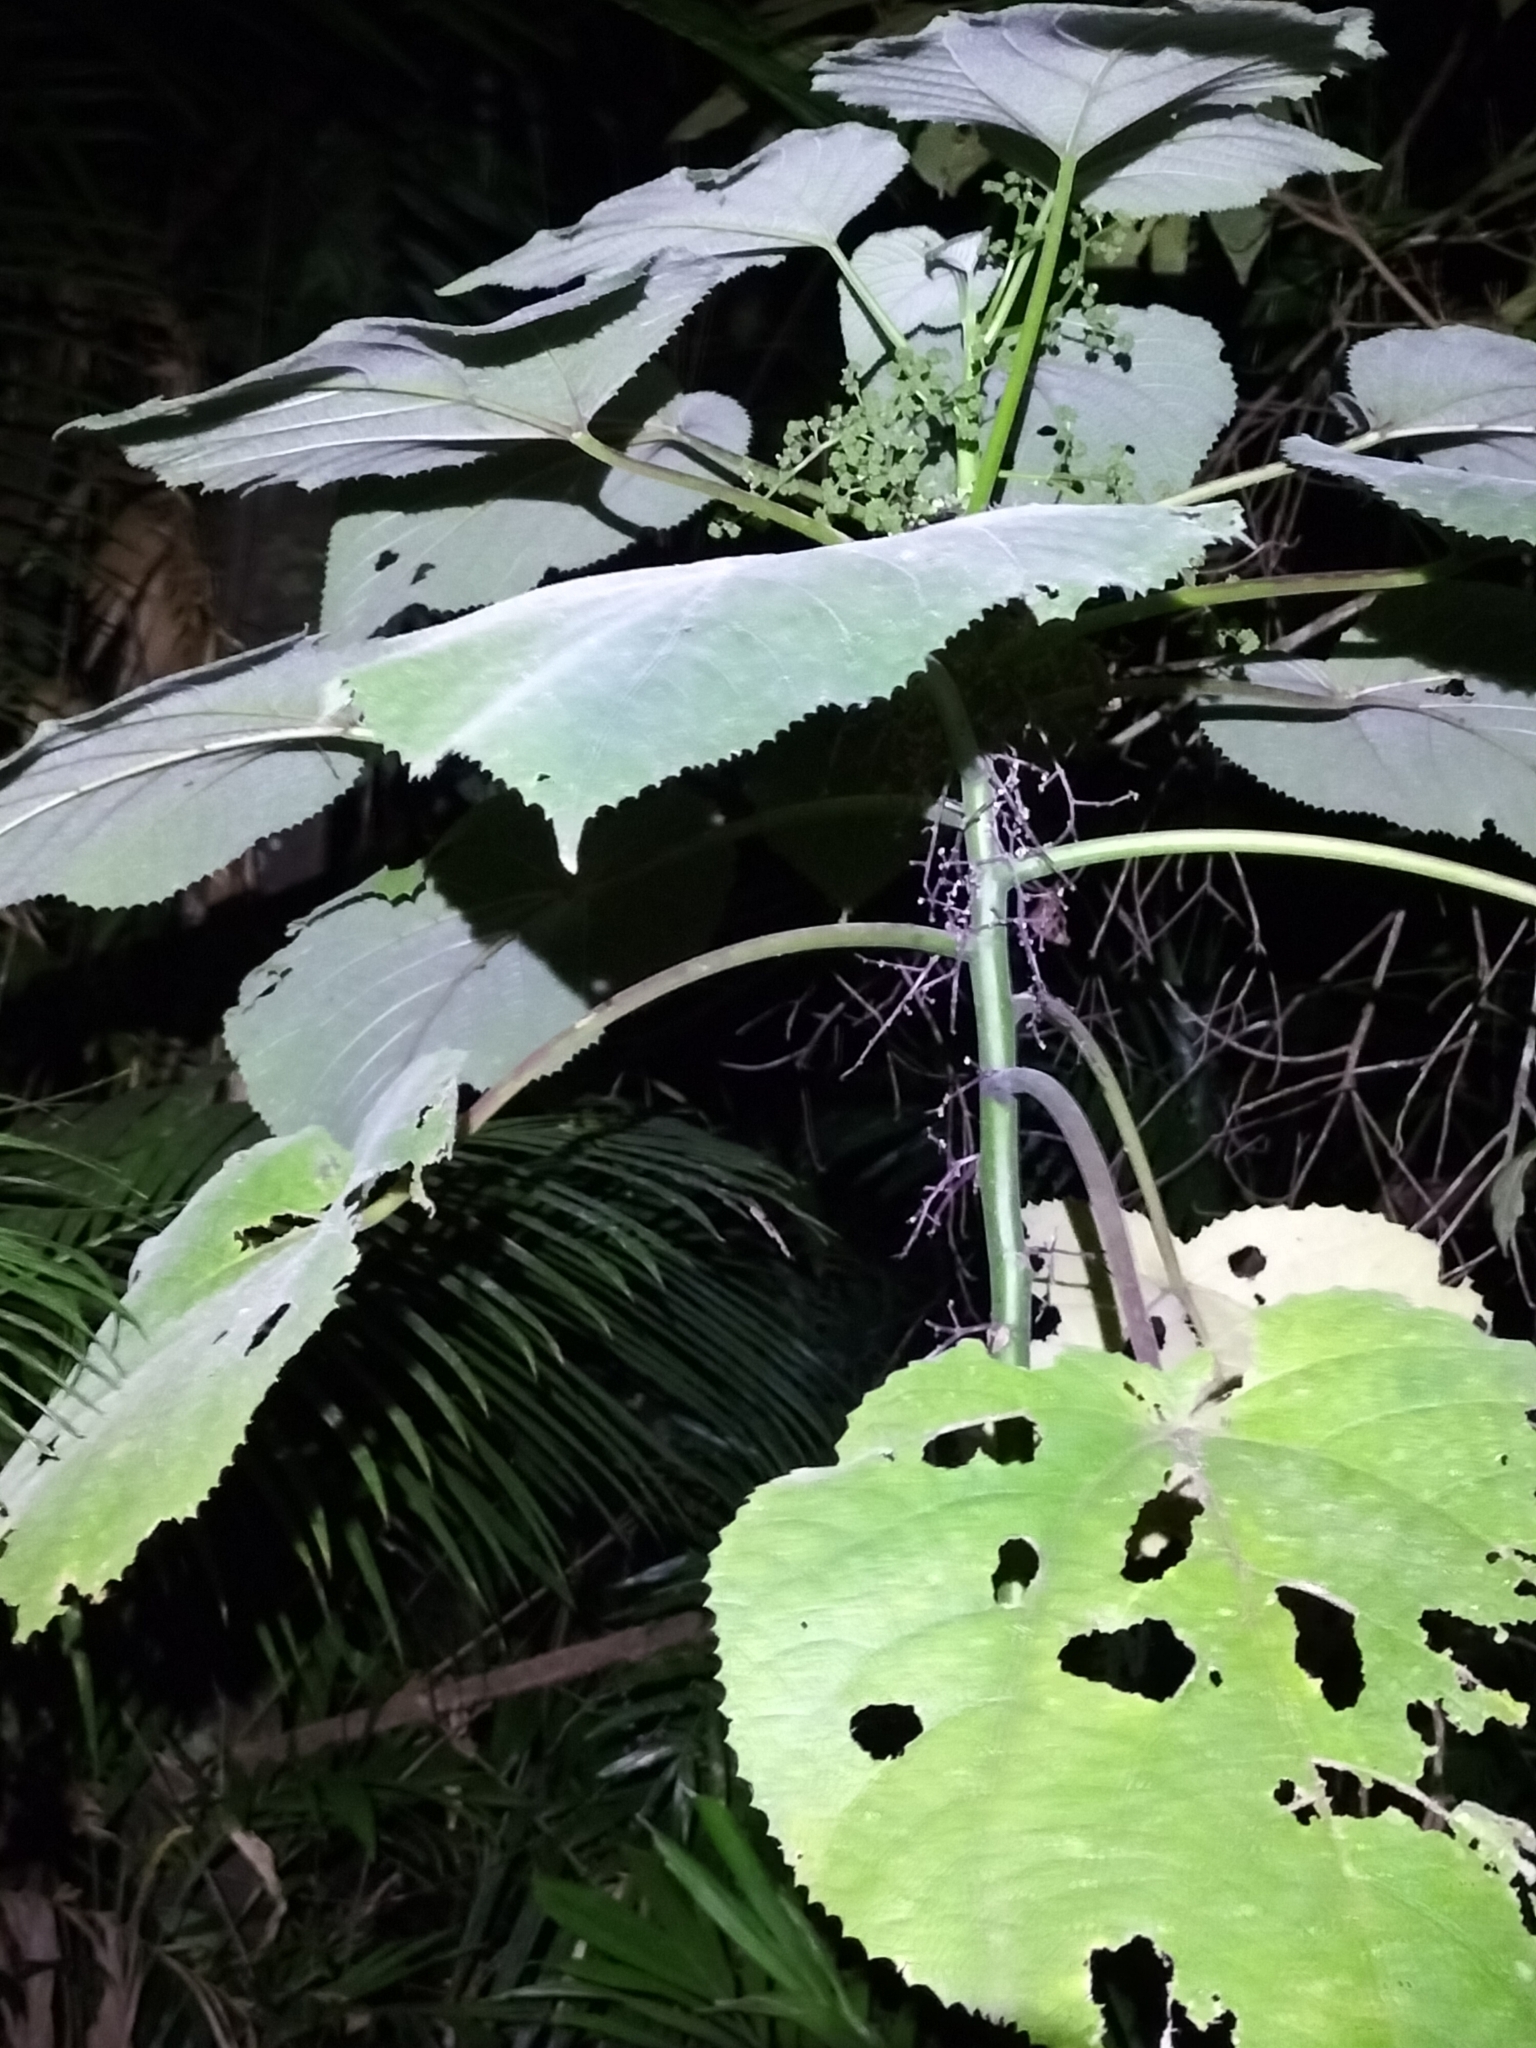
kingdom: Plantae
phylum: Tracheophyta
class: Magnoliopsida
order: Rosales
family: Urticaceae
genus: Dendrocnide
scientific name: Dendrocnide moroides
